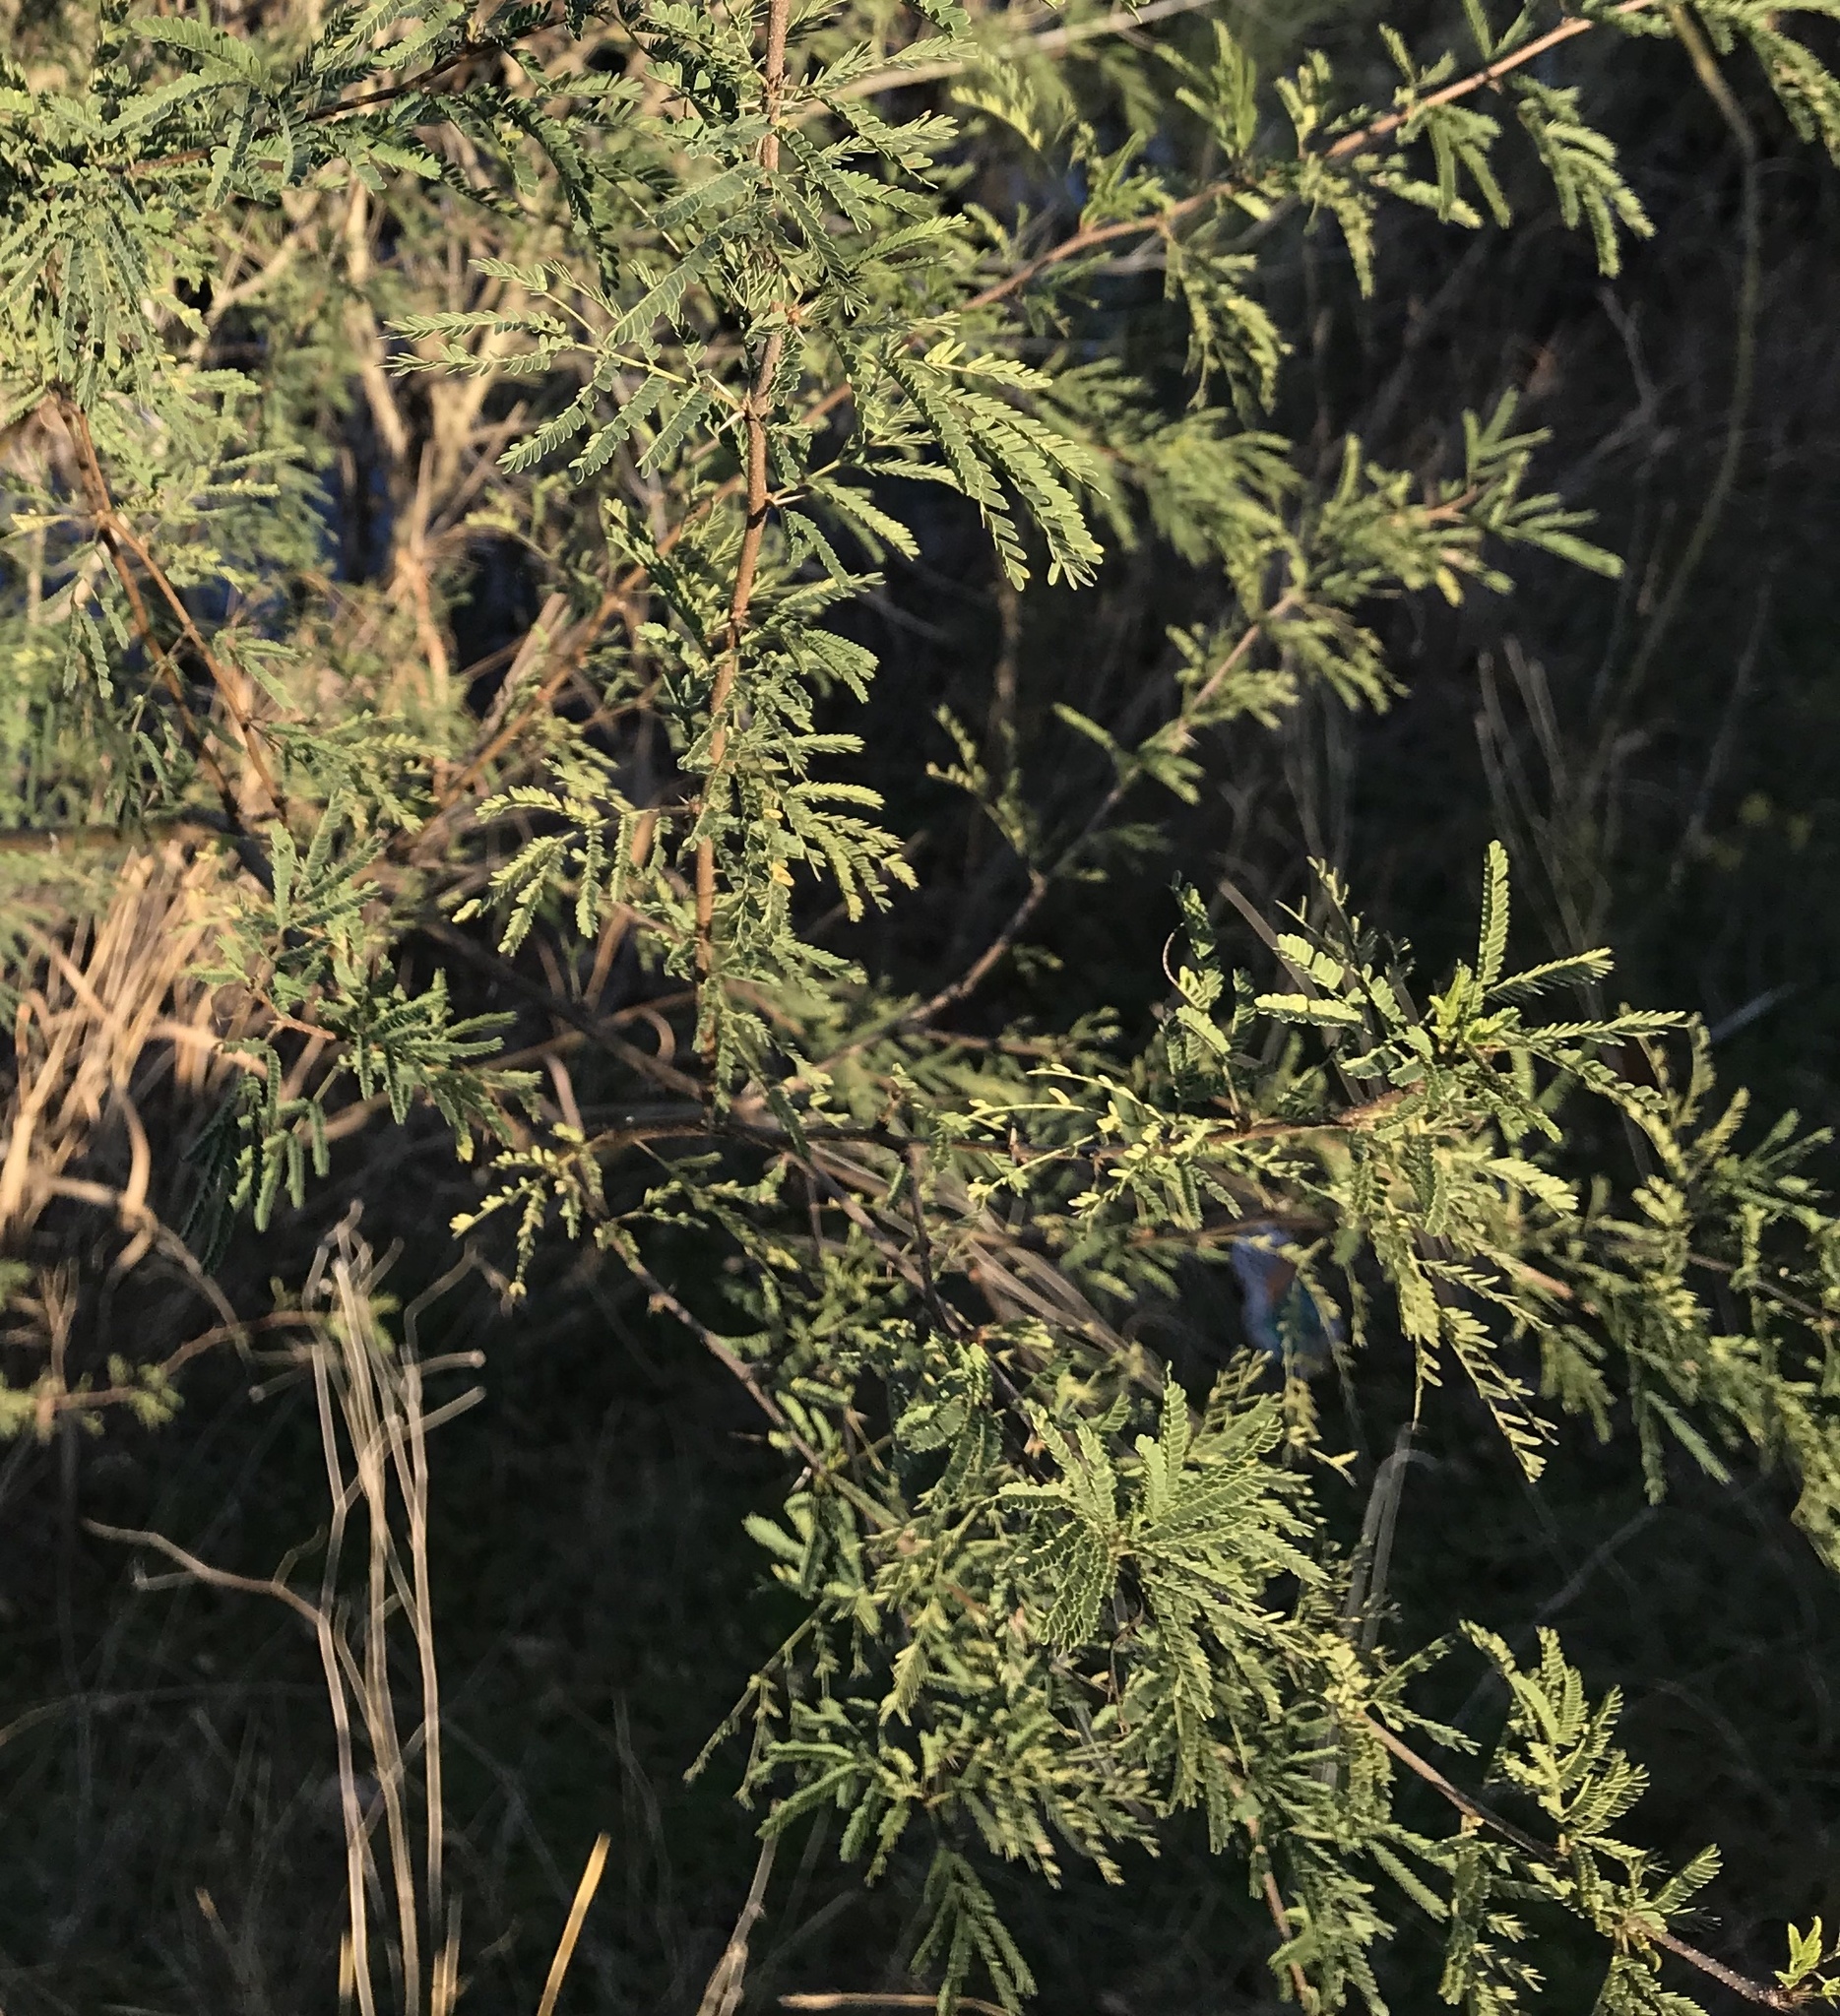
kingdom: Plantae
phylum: Tracheophyta
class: Magnoliopsida
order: Fabales
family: Fabaceae
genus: Vachellia
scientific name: Vachellia farnesiana
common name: Sweet acacia
